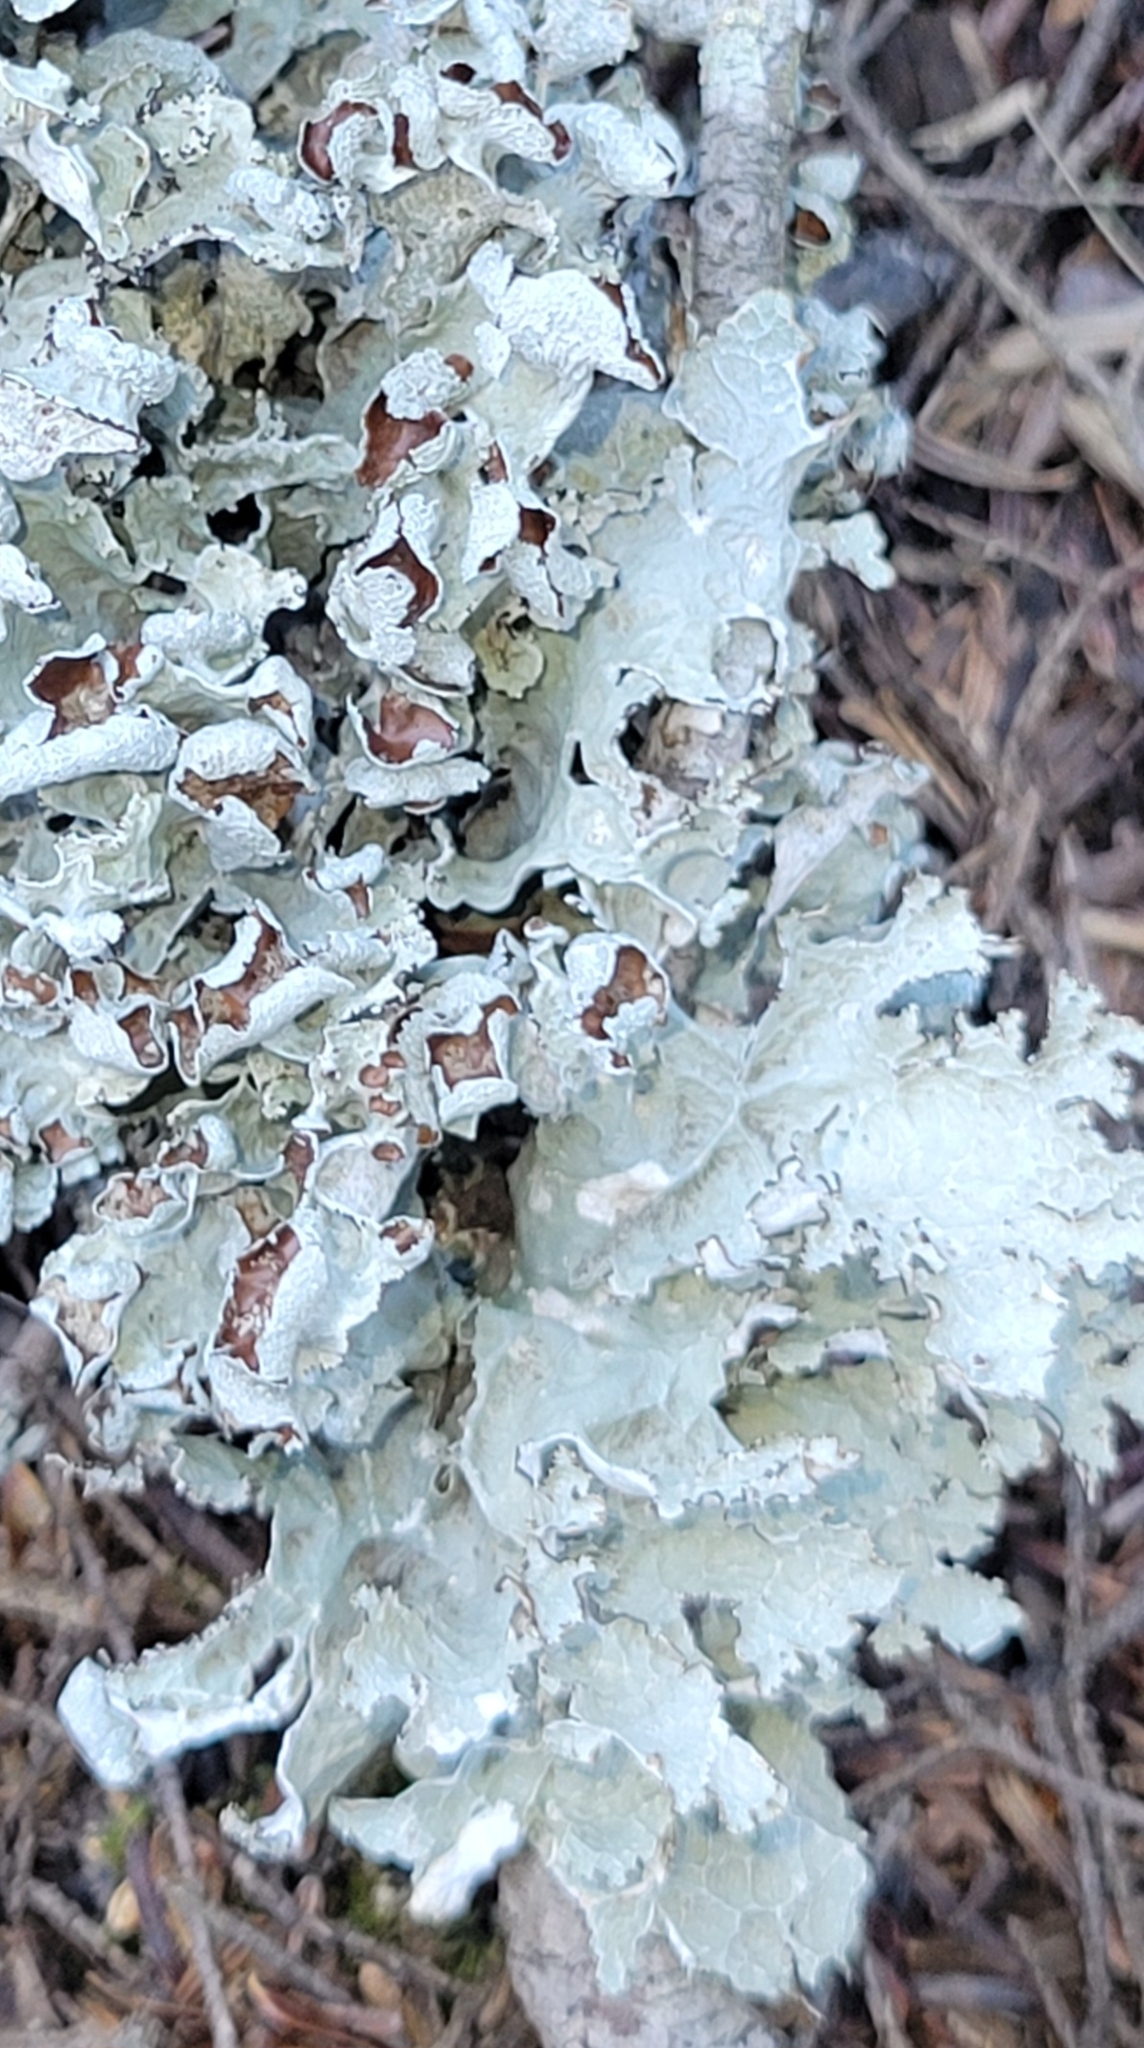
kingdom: Fungi
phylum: Ascomycota
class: Lecanoromycetes
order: Lecanorales
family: Parmeliaceae
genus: Platismatia
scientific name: Platismatia tuckermanii
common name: Crumpled rag lichen
